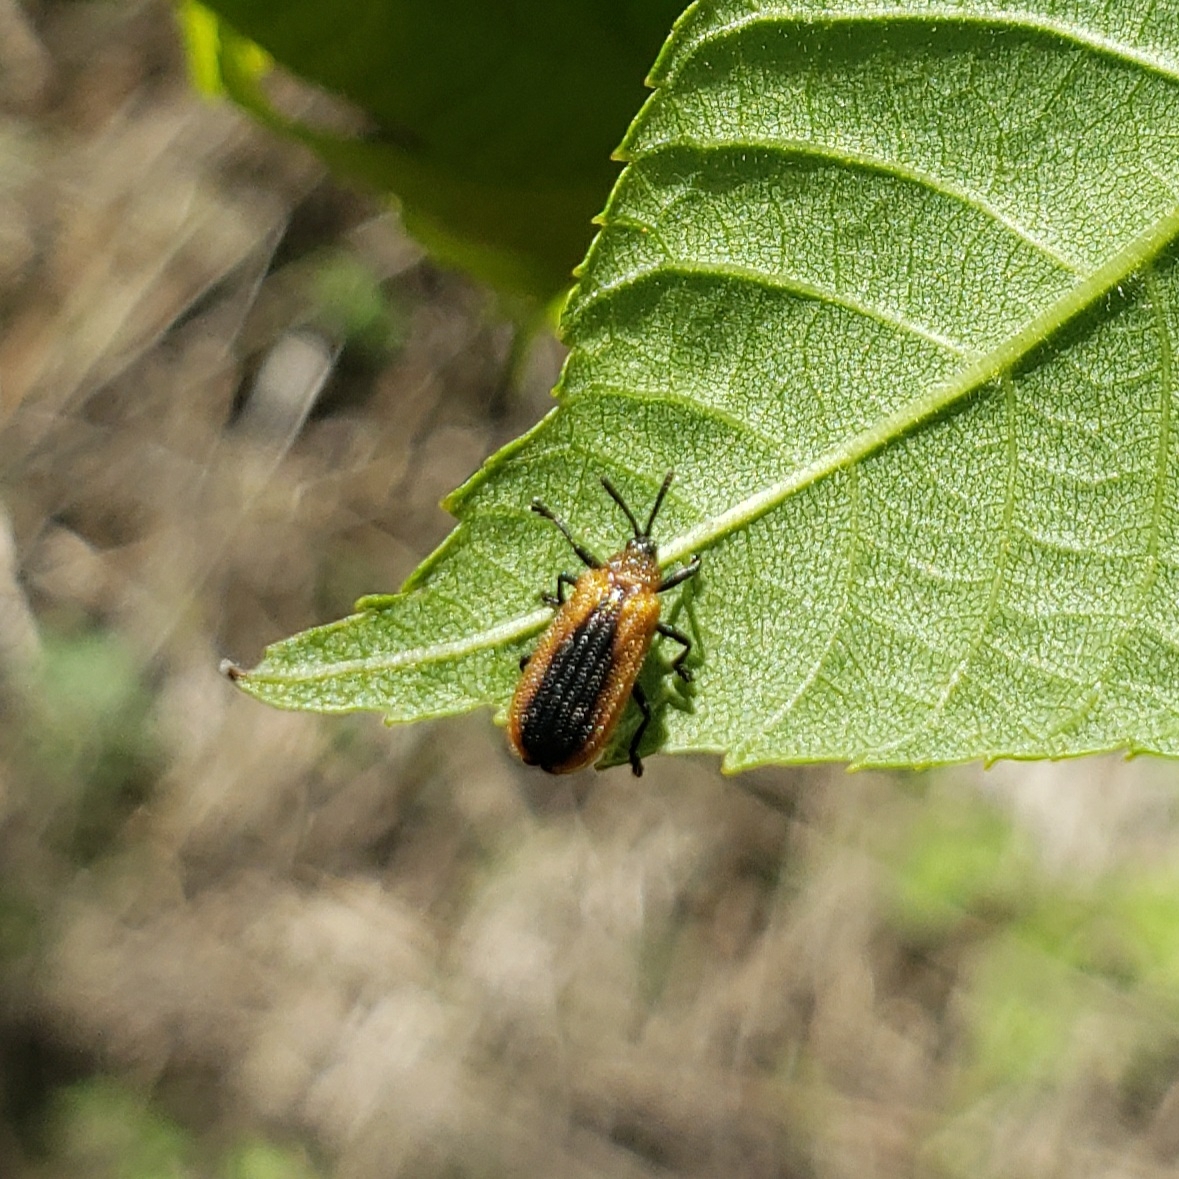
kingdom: Animalia
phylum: Arthropoda
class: Insecta
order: Coleoptera
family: Chrysomelidae
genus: Odontota
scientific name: Odontota dorsalis
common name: Locust leaf-miner beetle
